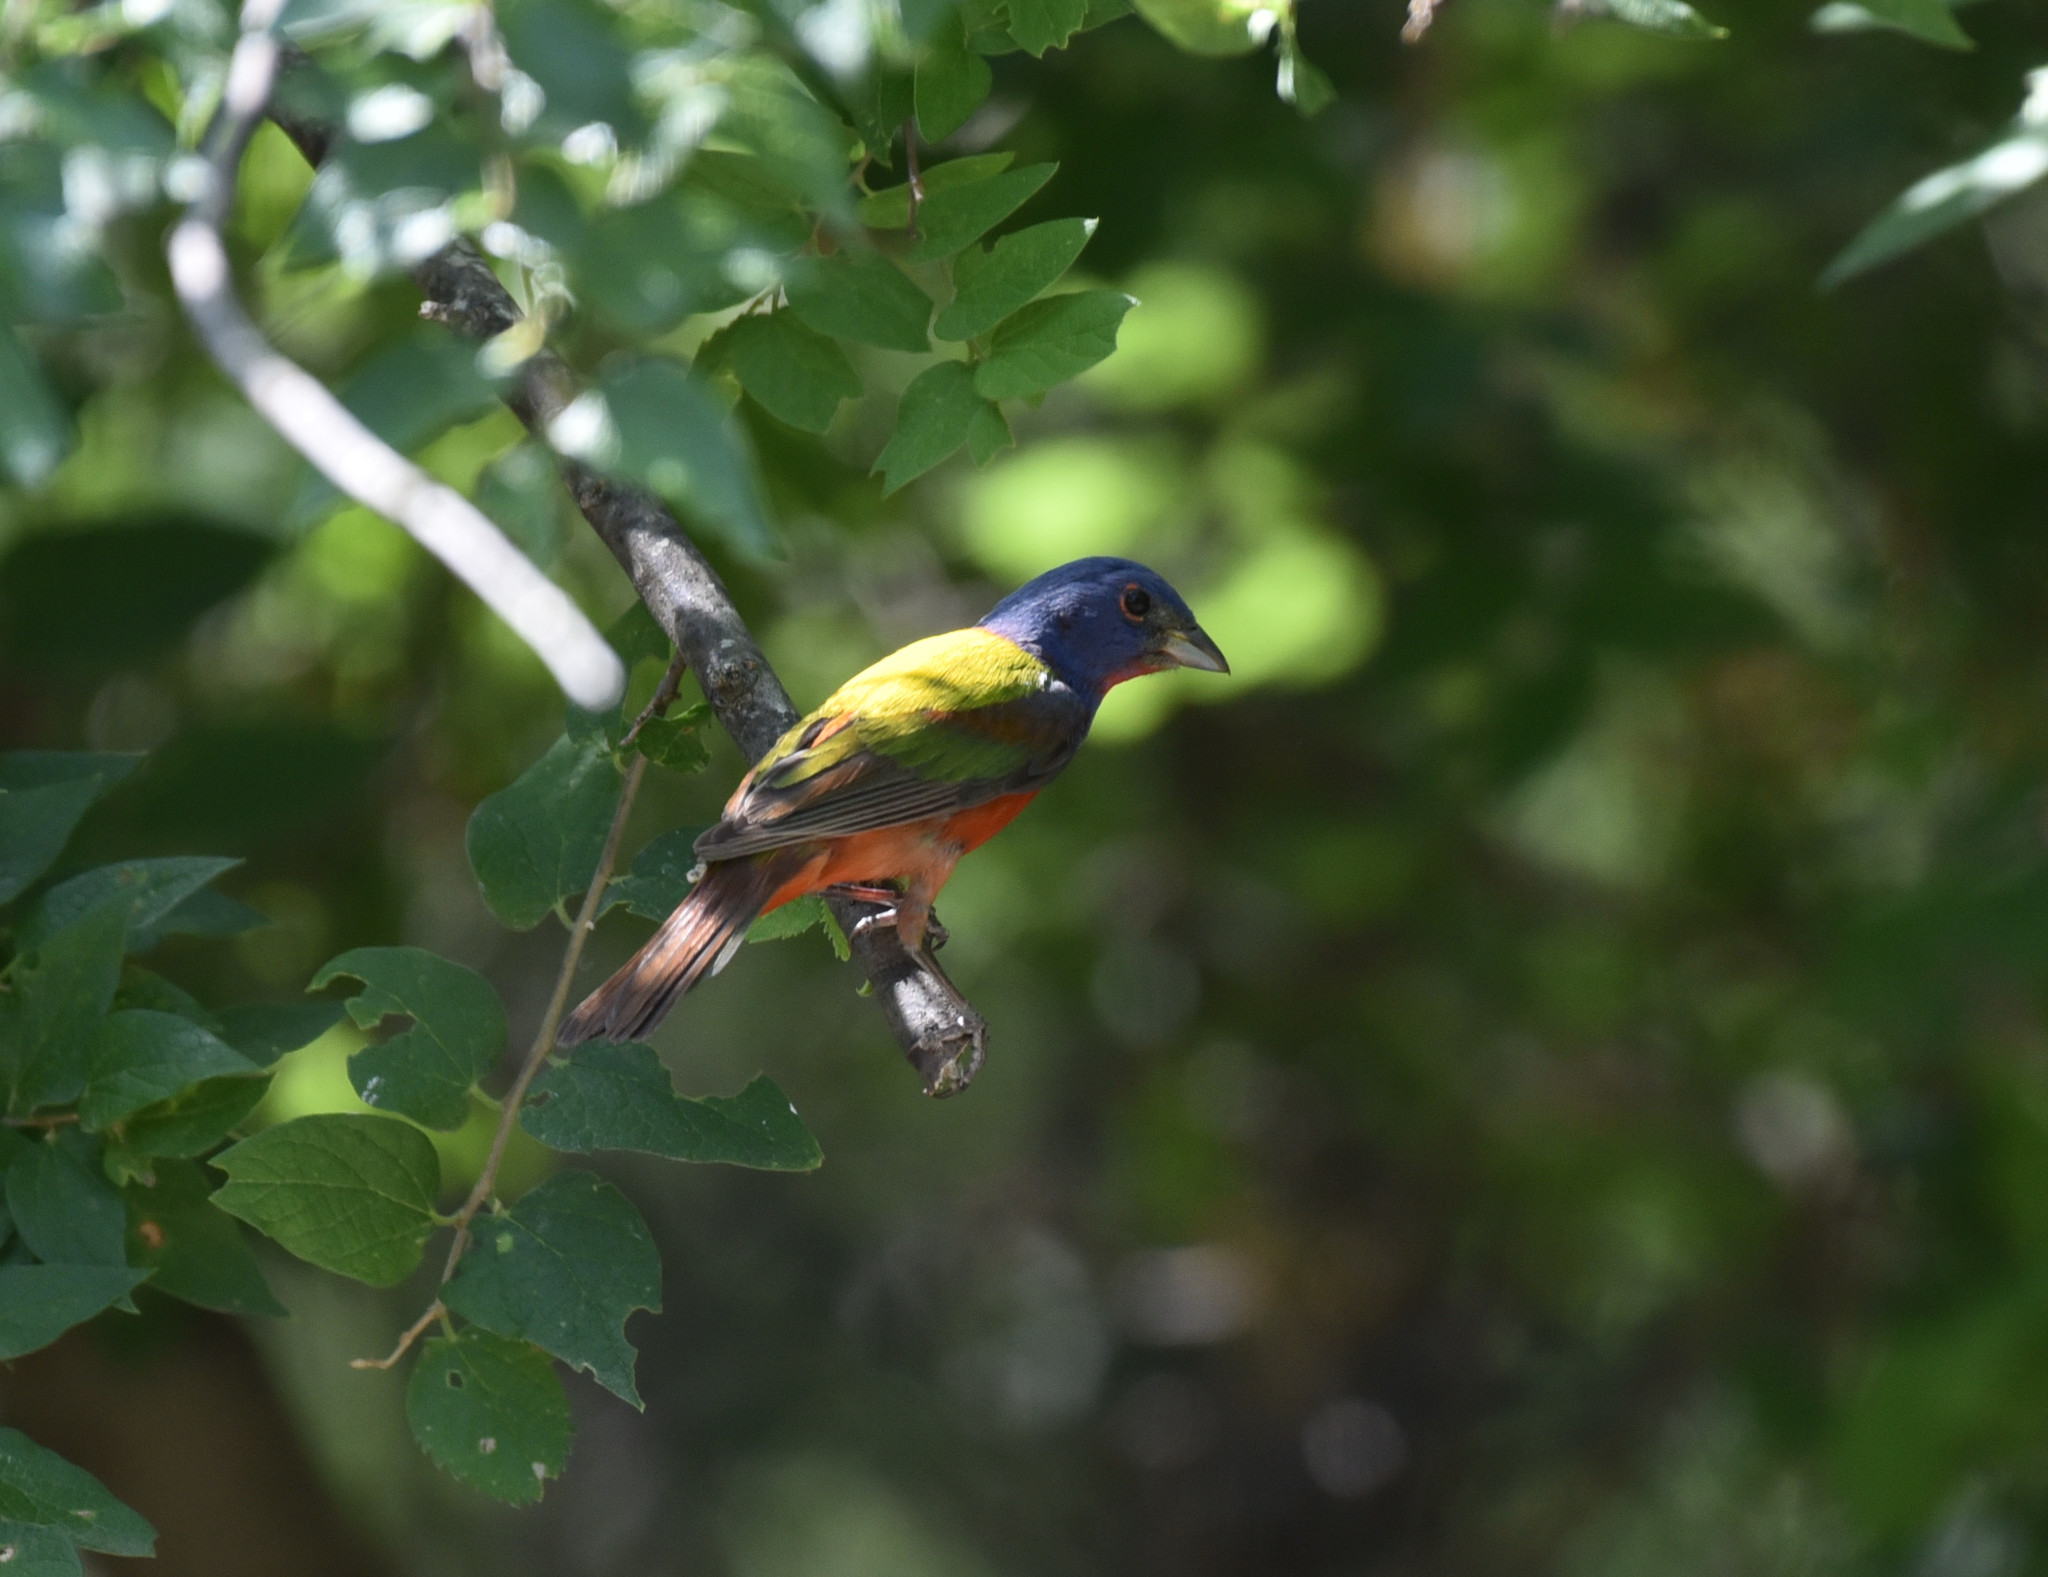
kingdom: Animalia
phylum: Chordata
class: Aves
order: Passeriformes
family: Cardinalidae
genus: Passerina
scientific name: Passerina ciris
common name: Painted bunting
